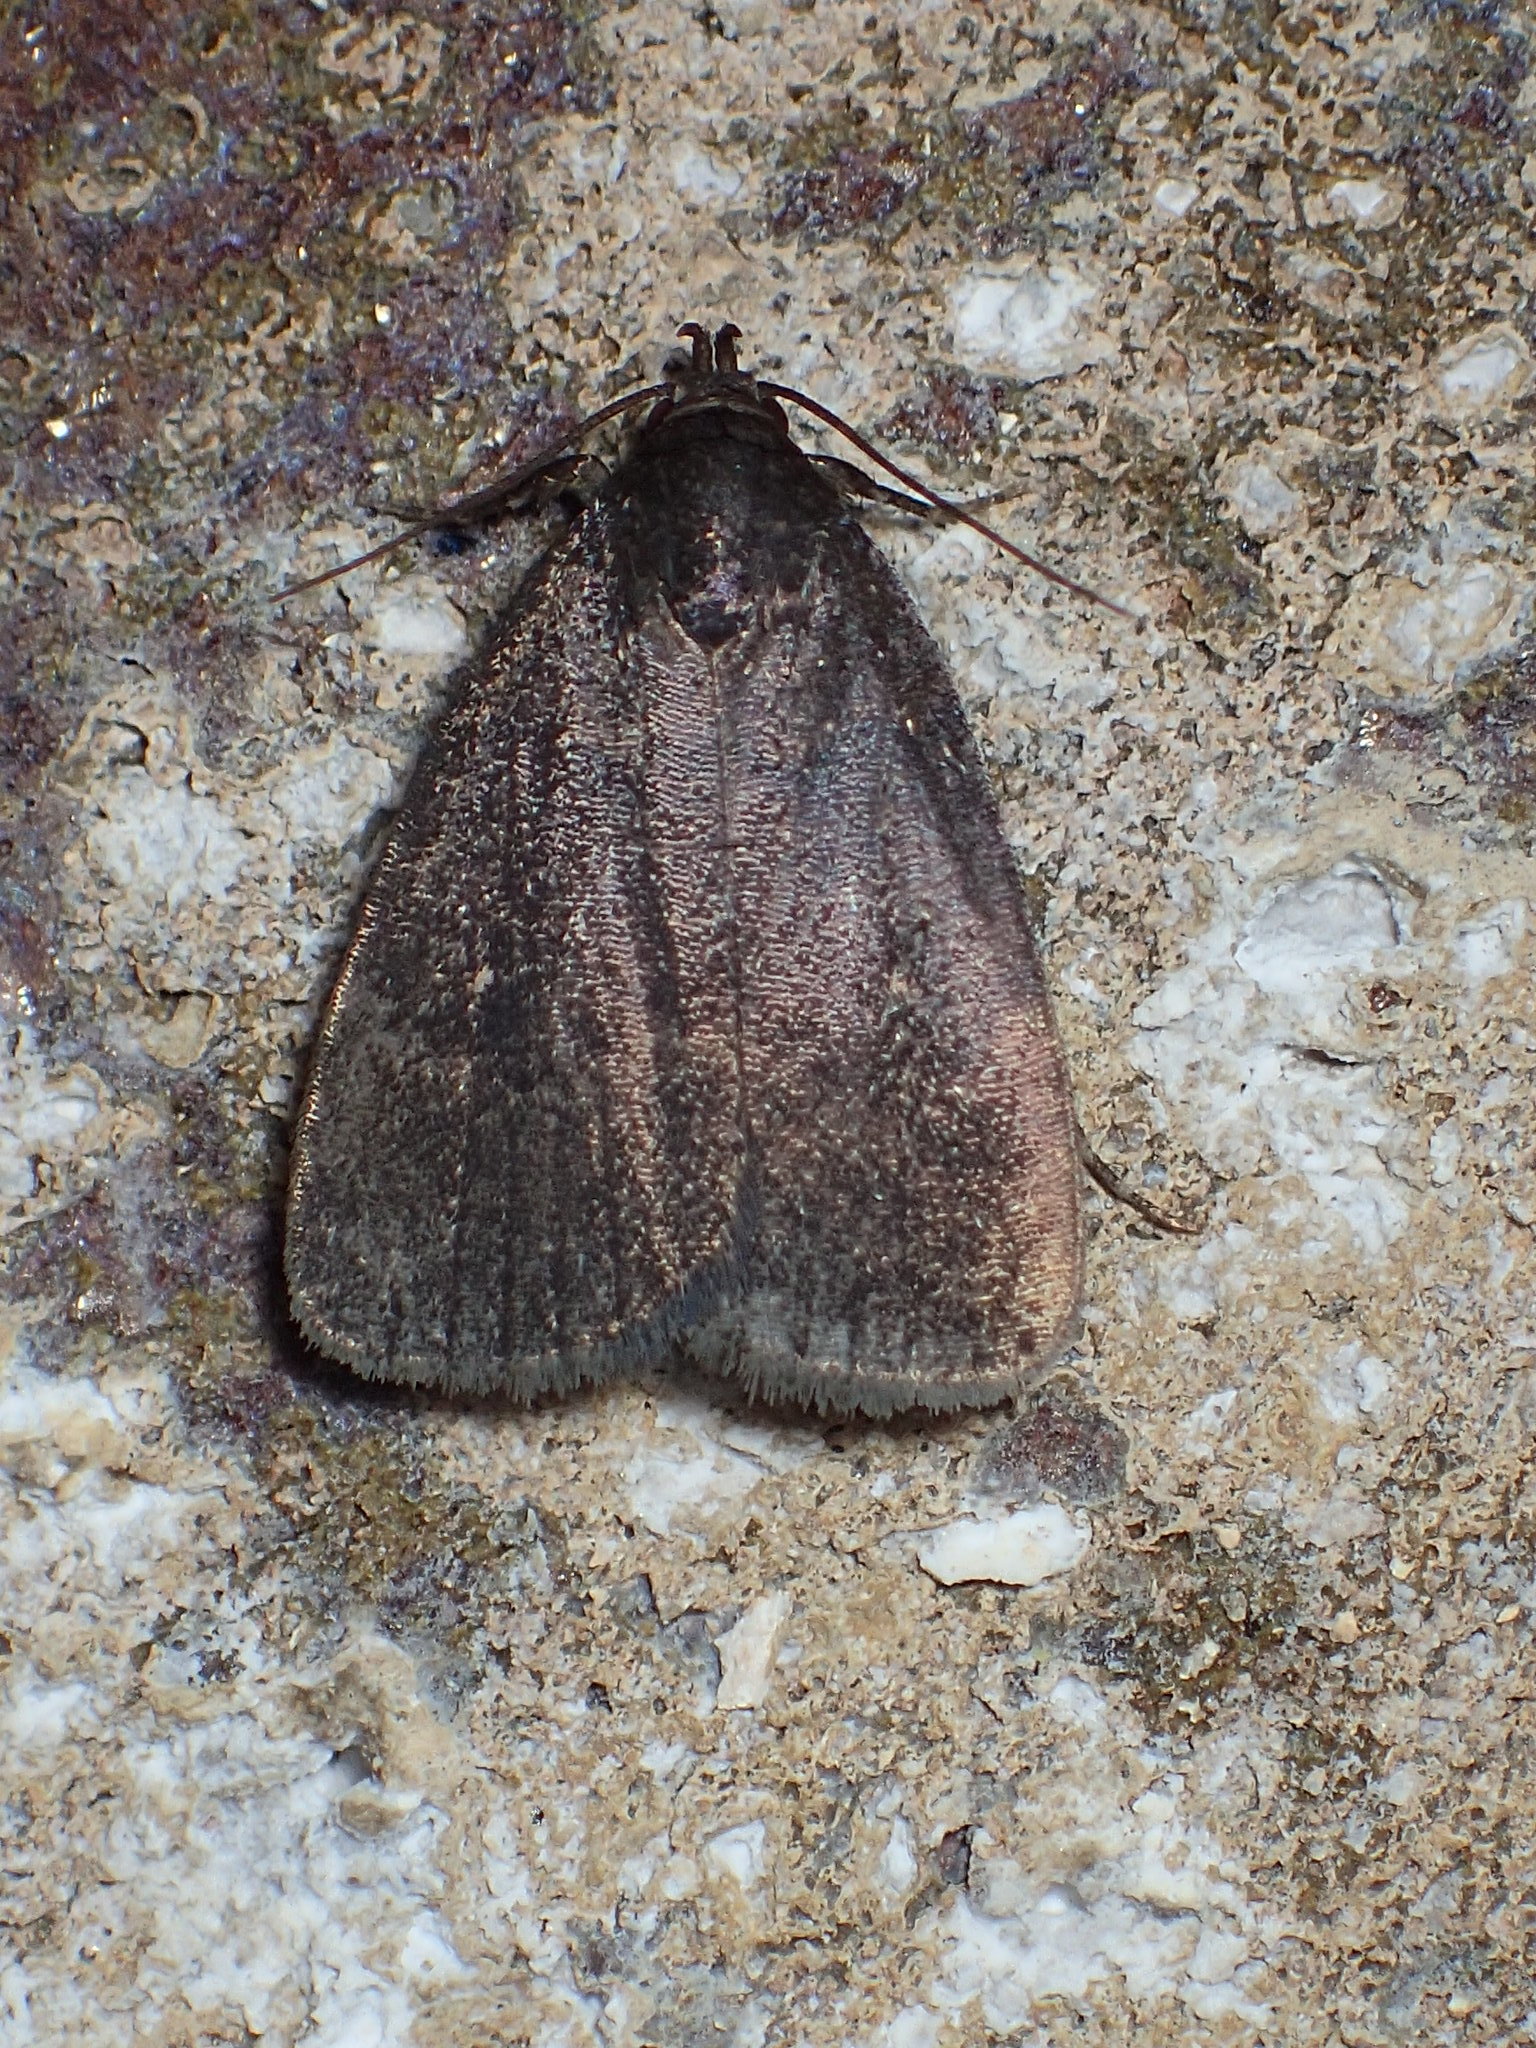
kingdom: Animalia
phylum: Arthropoda
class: Insecta
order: Lepidoptera
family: Erebidae
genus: Idia
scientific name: Idia rotundalis
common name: Rotund idia moth
